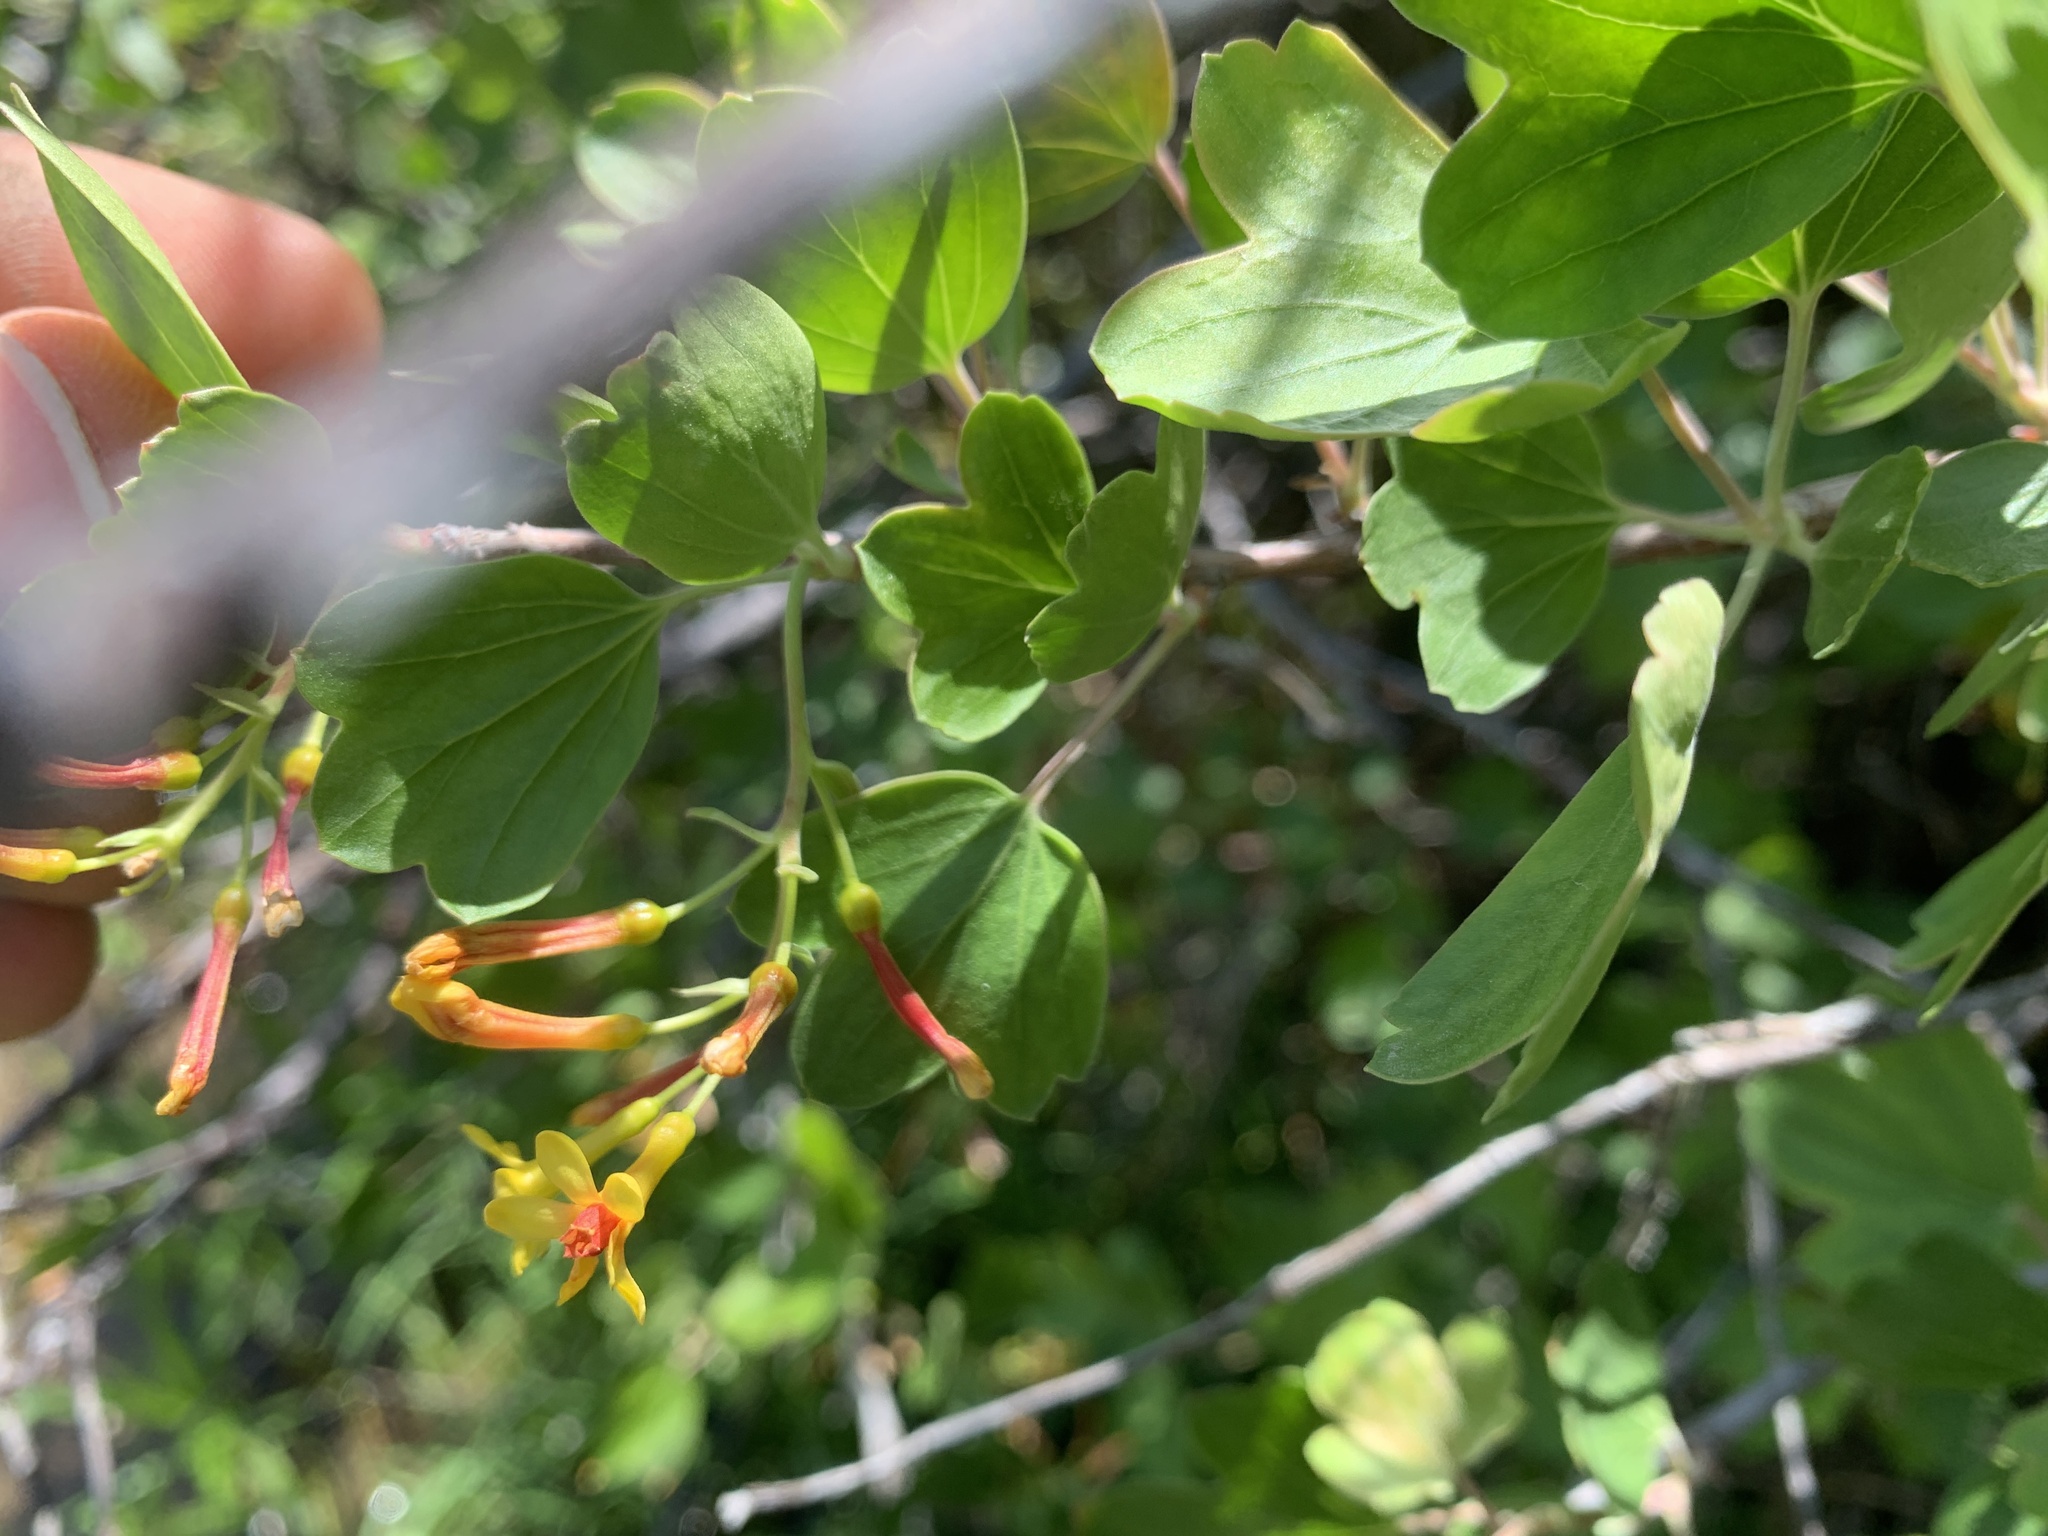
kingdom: Plantae
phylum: Tracheophyta
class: Magnoliopsida
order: Saxifragales
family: Grossulariaceae
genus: Ribes
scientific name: Ribes aureum
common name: Golden currant
